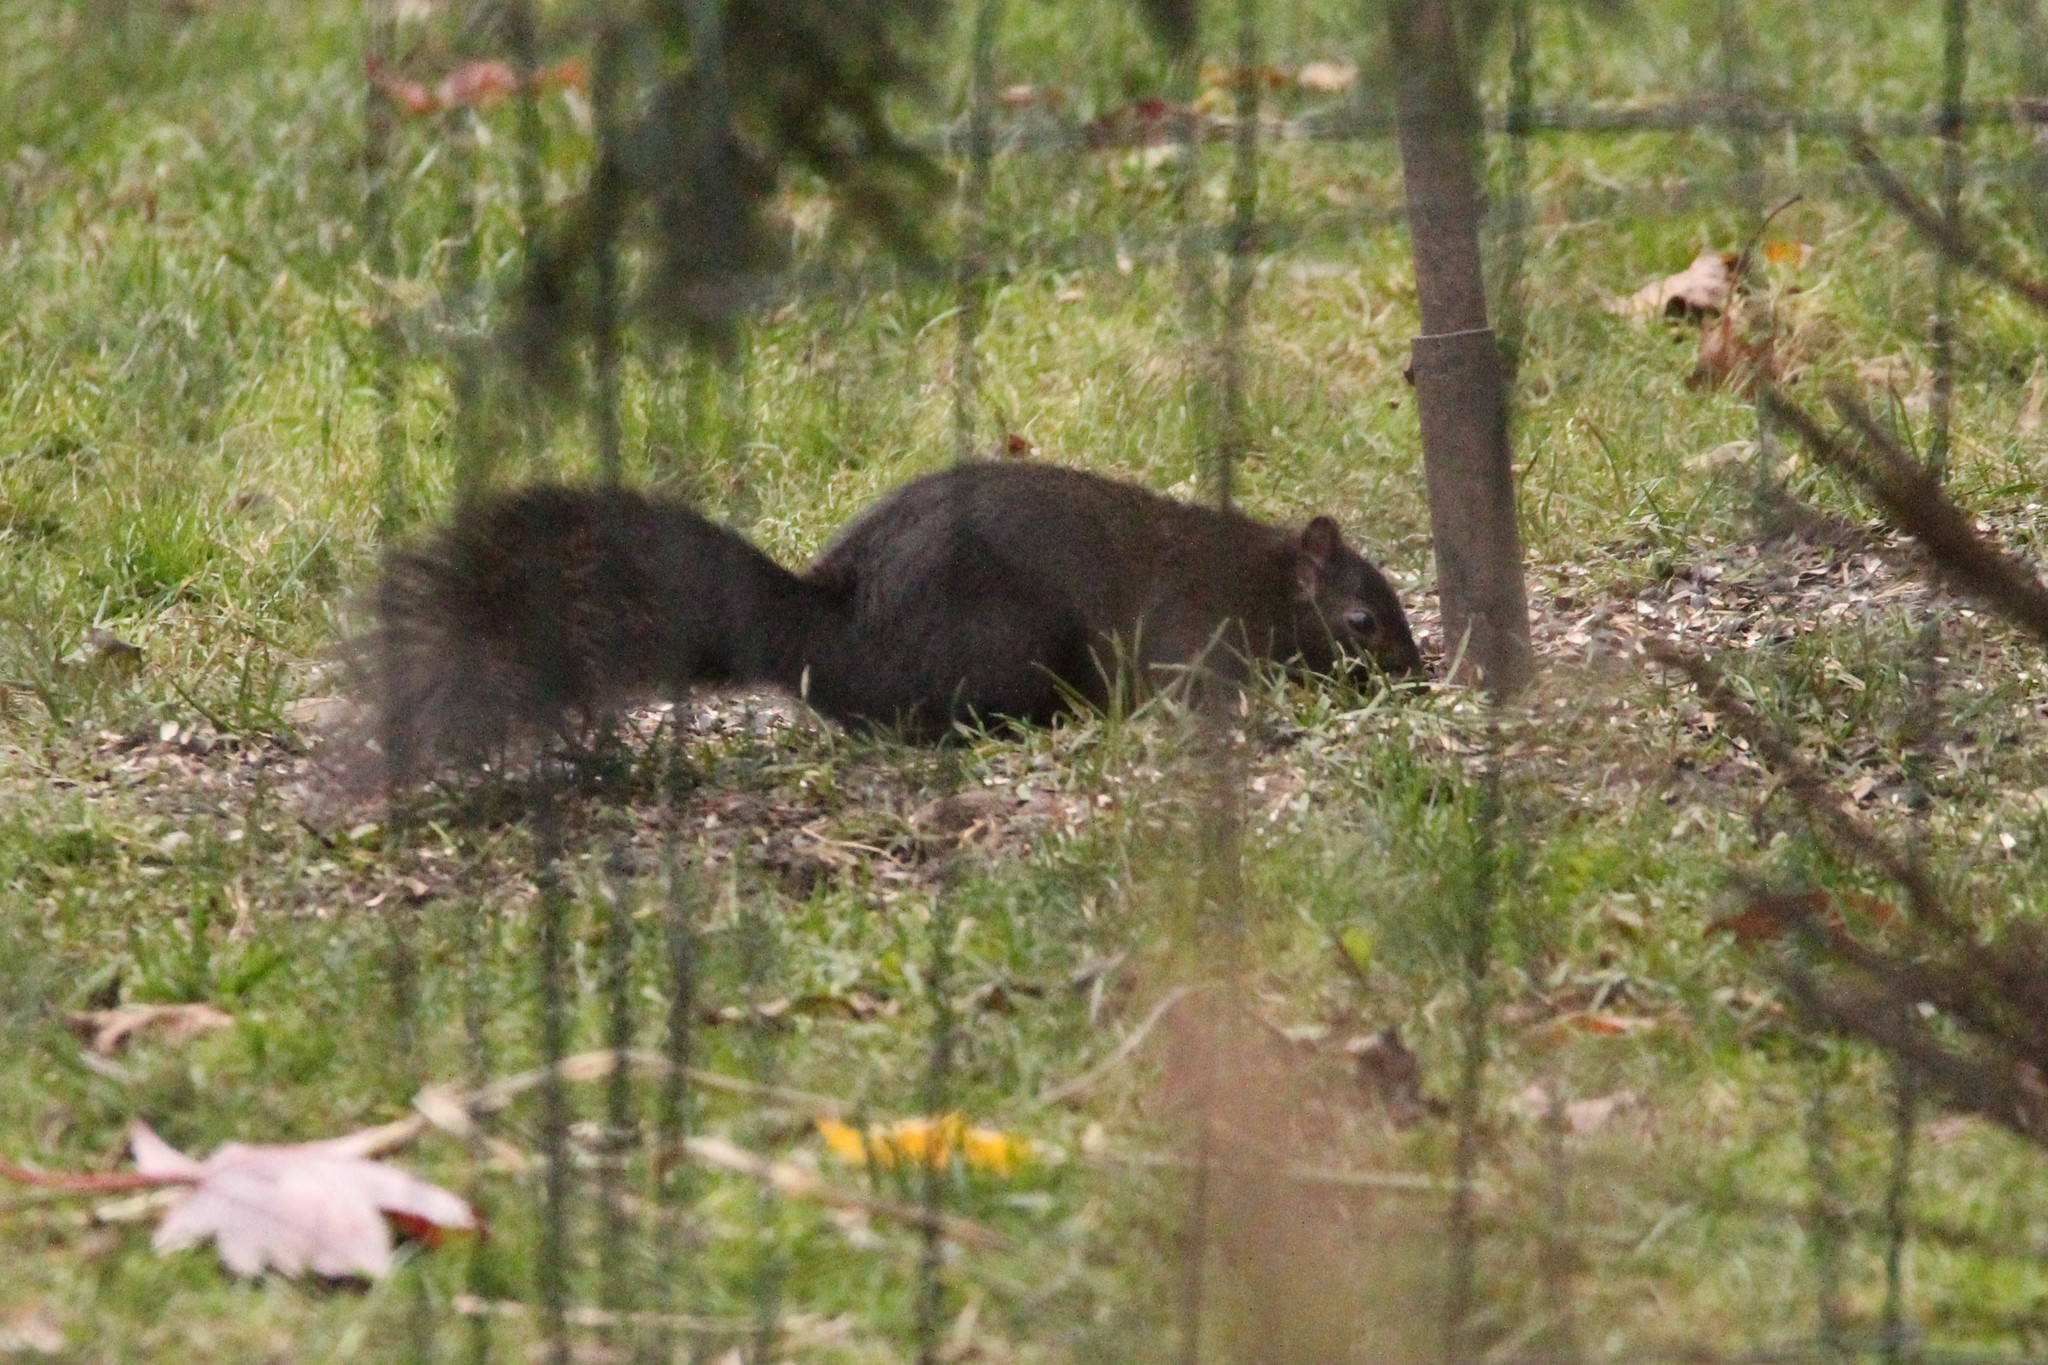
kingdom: Animalia
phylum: Chordata
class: Mammalia
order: Rodentia
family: Sciuridae
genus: Sciurus
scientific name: Sciurus carolinensis
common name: Eastern gray squirrel
